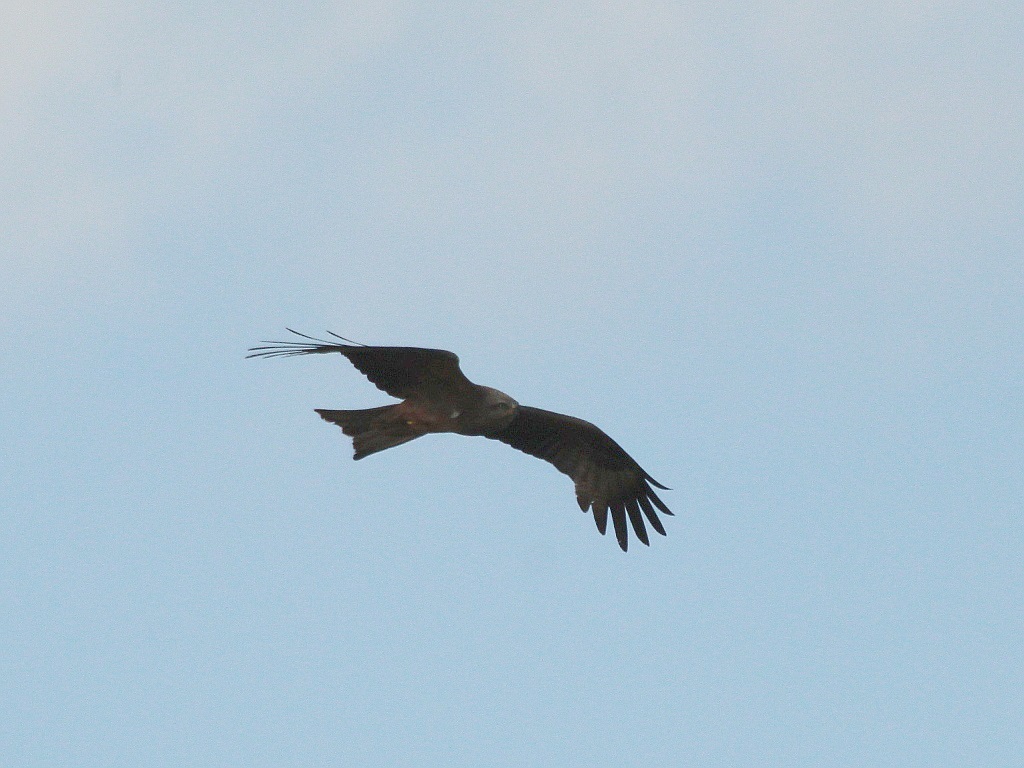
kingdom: Animalia
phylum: Chordata
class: Aves
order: Accipitriformes
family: Accipitridae
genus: Milvus
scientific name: Milvus migrans
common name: Black kite
